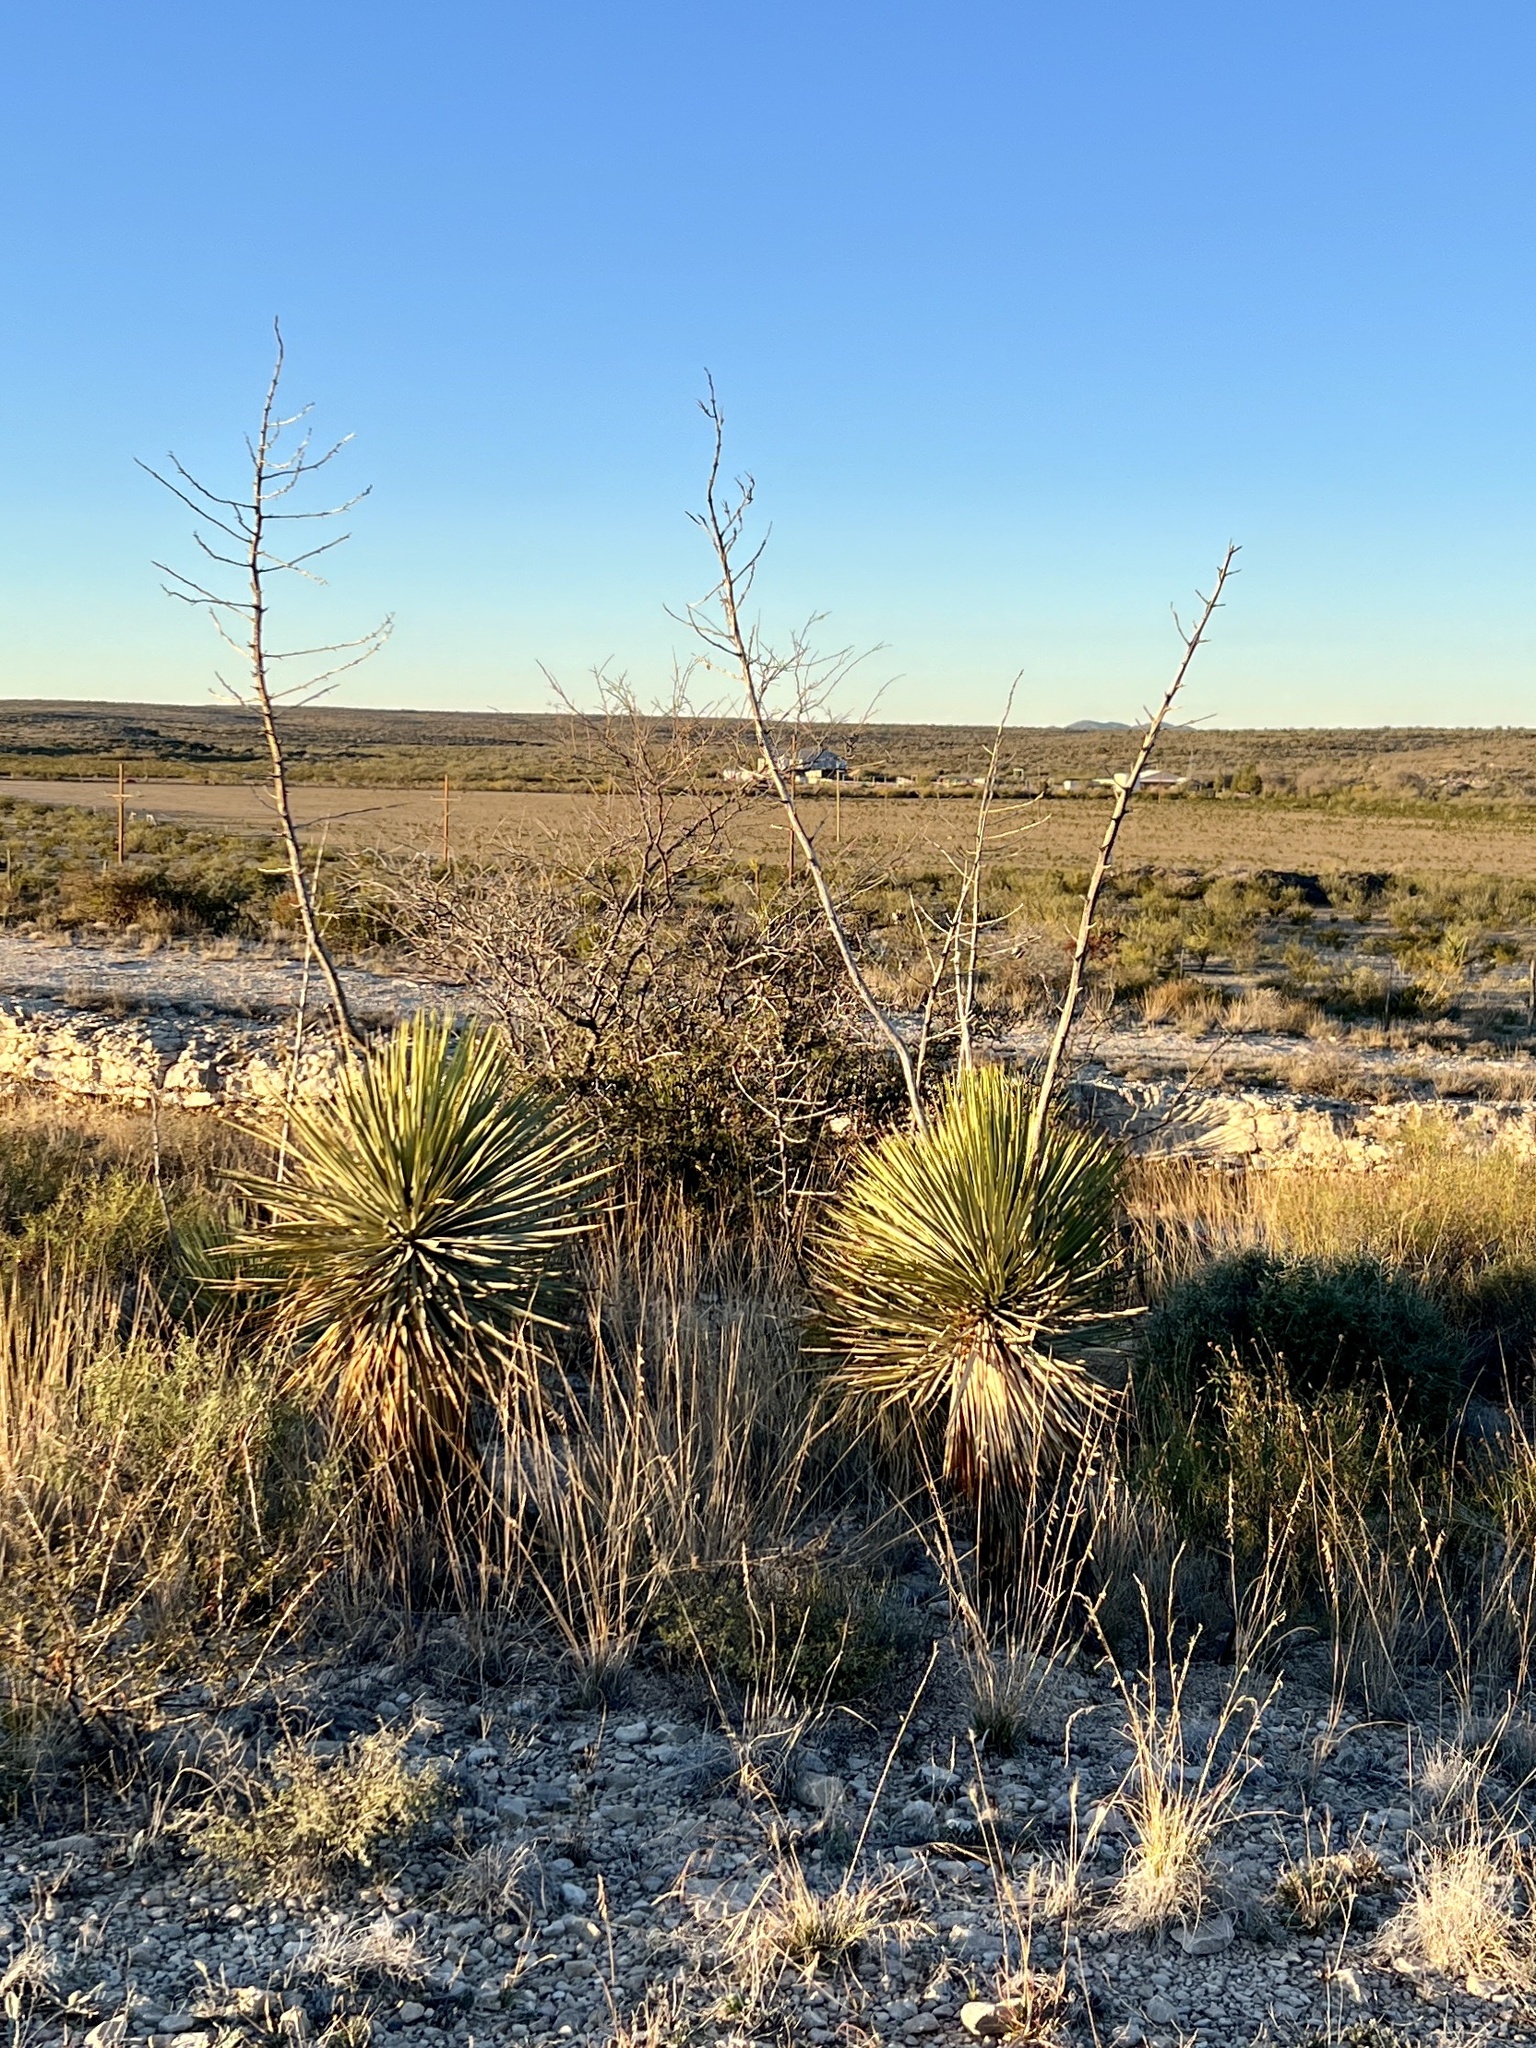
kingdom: Plantae
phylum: Tracheophyta
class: Liliopsida
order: Asparagales
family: Asparagaceae
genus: Yucca
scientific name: Yucca thompsoniana
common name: Trans-pecos yucca
